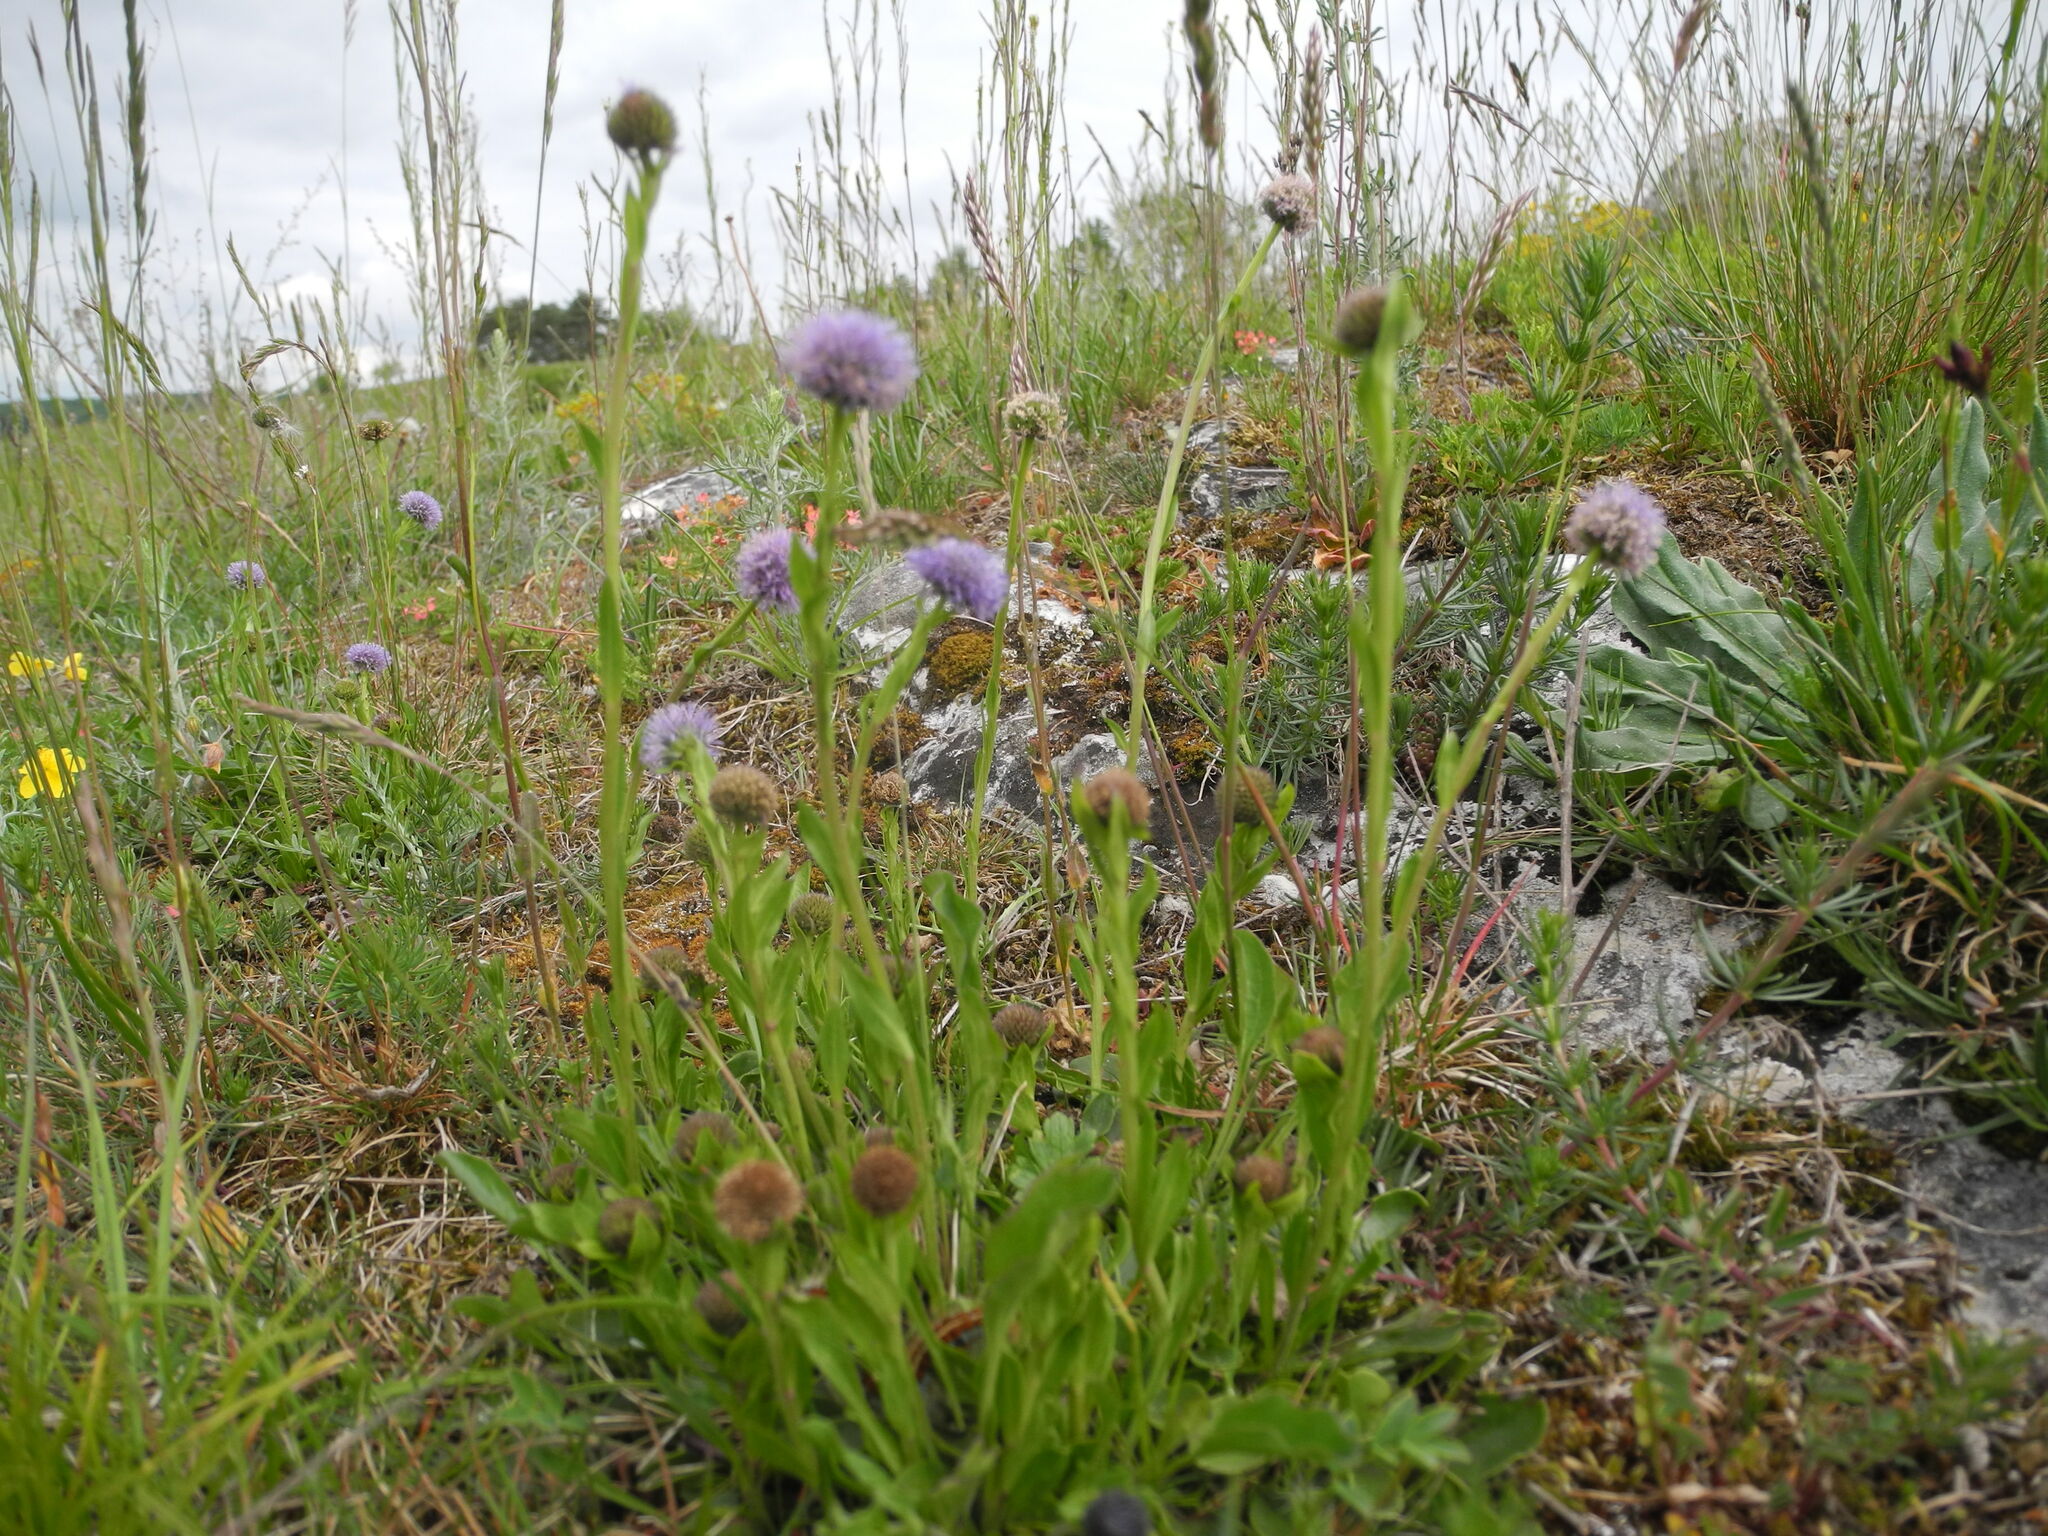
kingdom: Plantae
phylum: Tracheophyta
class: Magnoliopsida
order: Lamiales
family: Plantaginaceae
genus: Globularia
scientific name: Globularia bisnagarica
